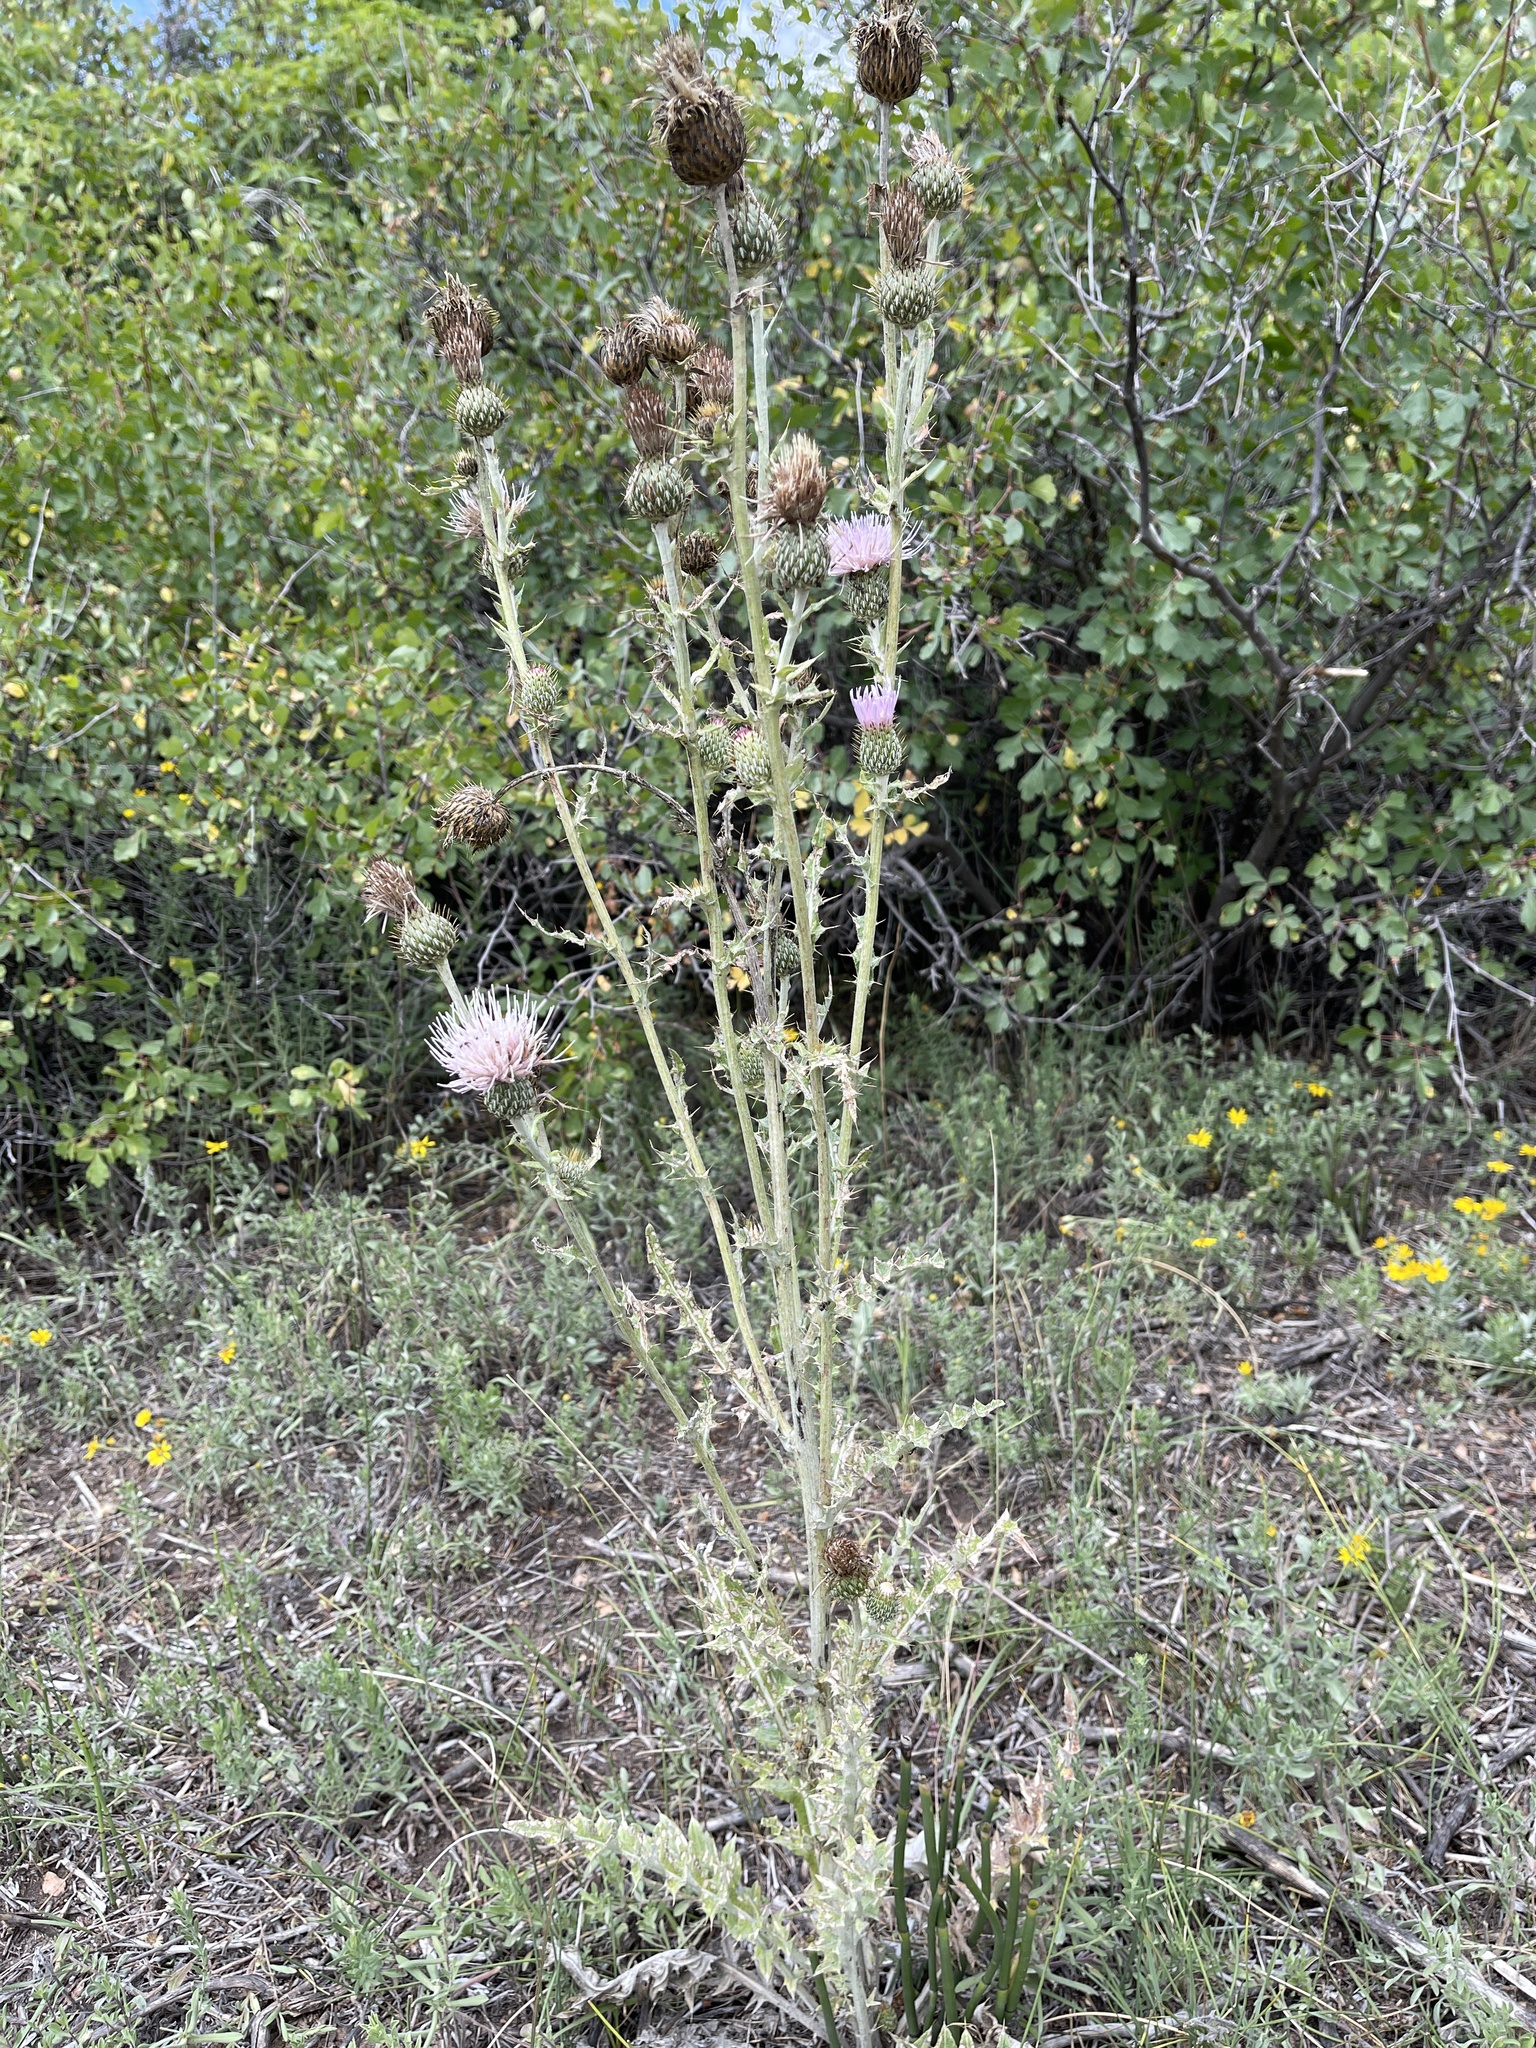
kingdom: Plantae
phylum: Tracheophyta
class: Magnoliopsida
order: Asterales
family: Asteraceae
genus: Cirsium
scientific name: Cirsium tracyi
